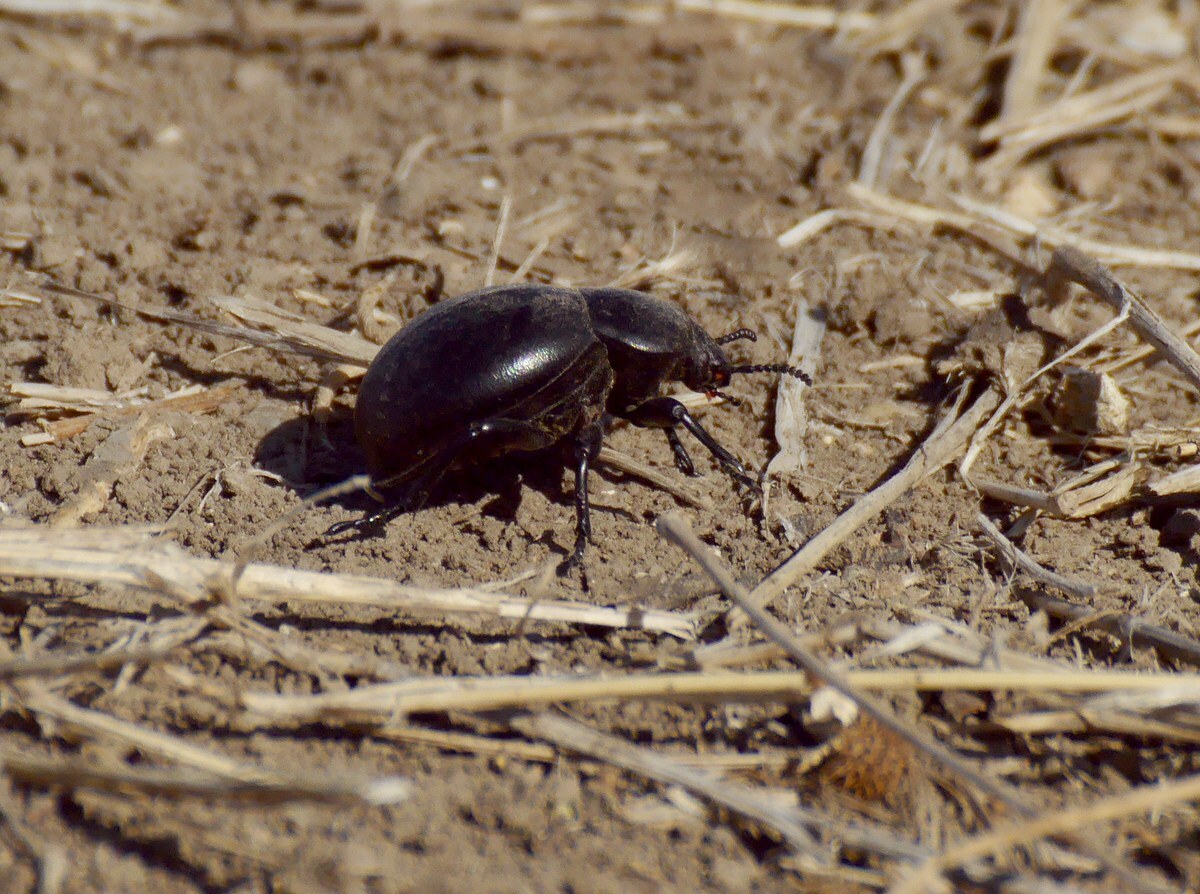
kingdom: Animalia
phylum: Arthropoda
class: Insecta
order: Coleoptera
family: Tenebrionidae
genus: Gnaptor
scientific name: Gnaptor spinimanus
